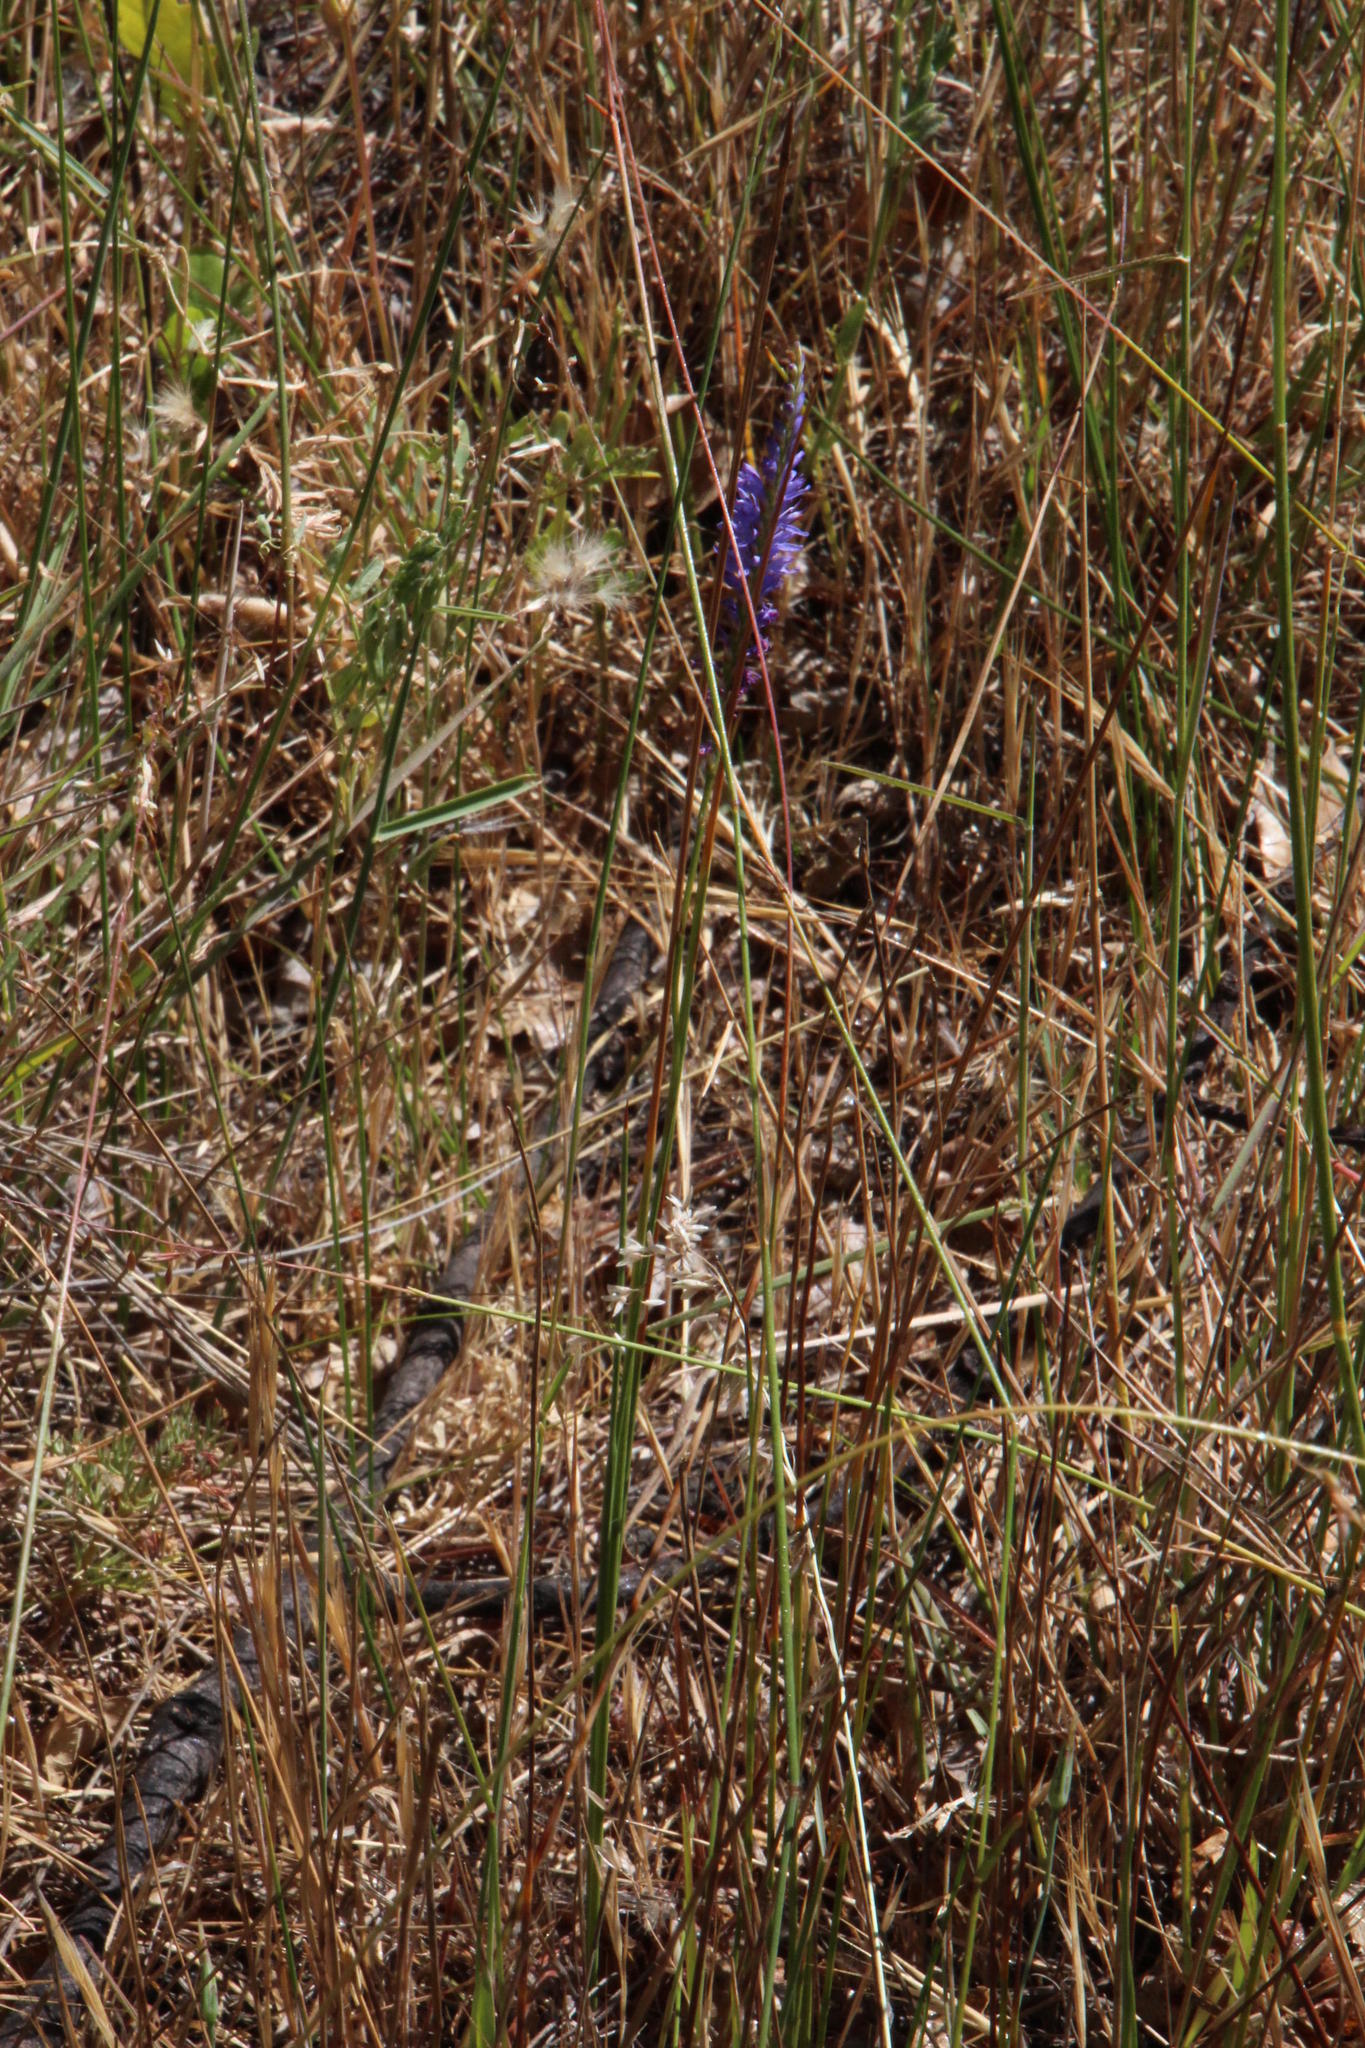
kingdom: Plantae
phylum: Tracheophyta
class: Liliopsida
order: Asparagales
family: Iridaceae
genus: Micranthus
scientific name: Micranthus plantagineus
